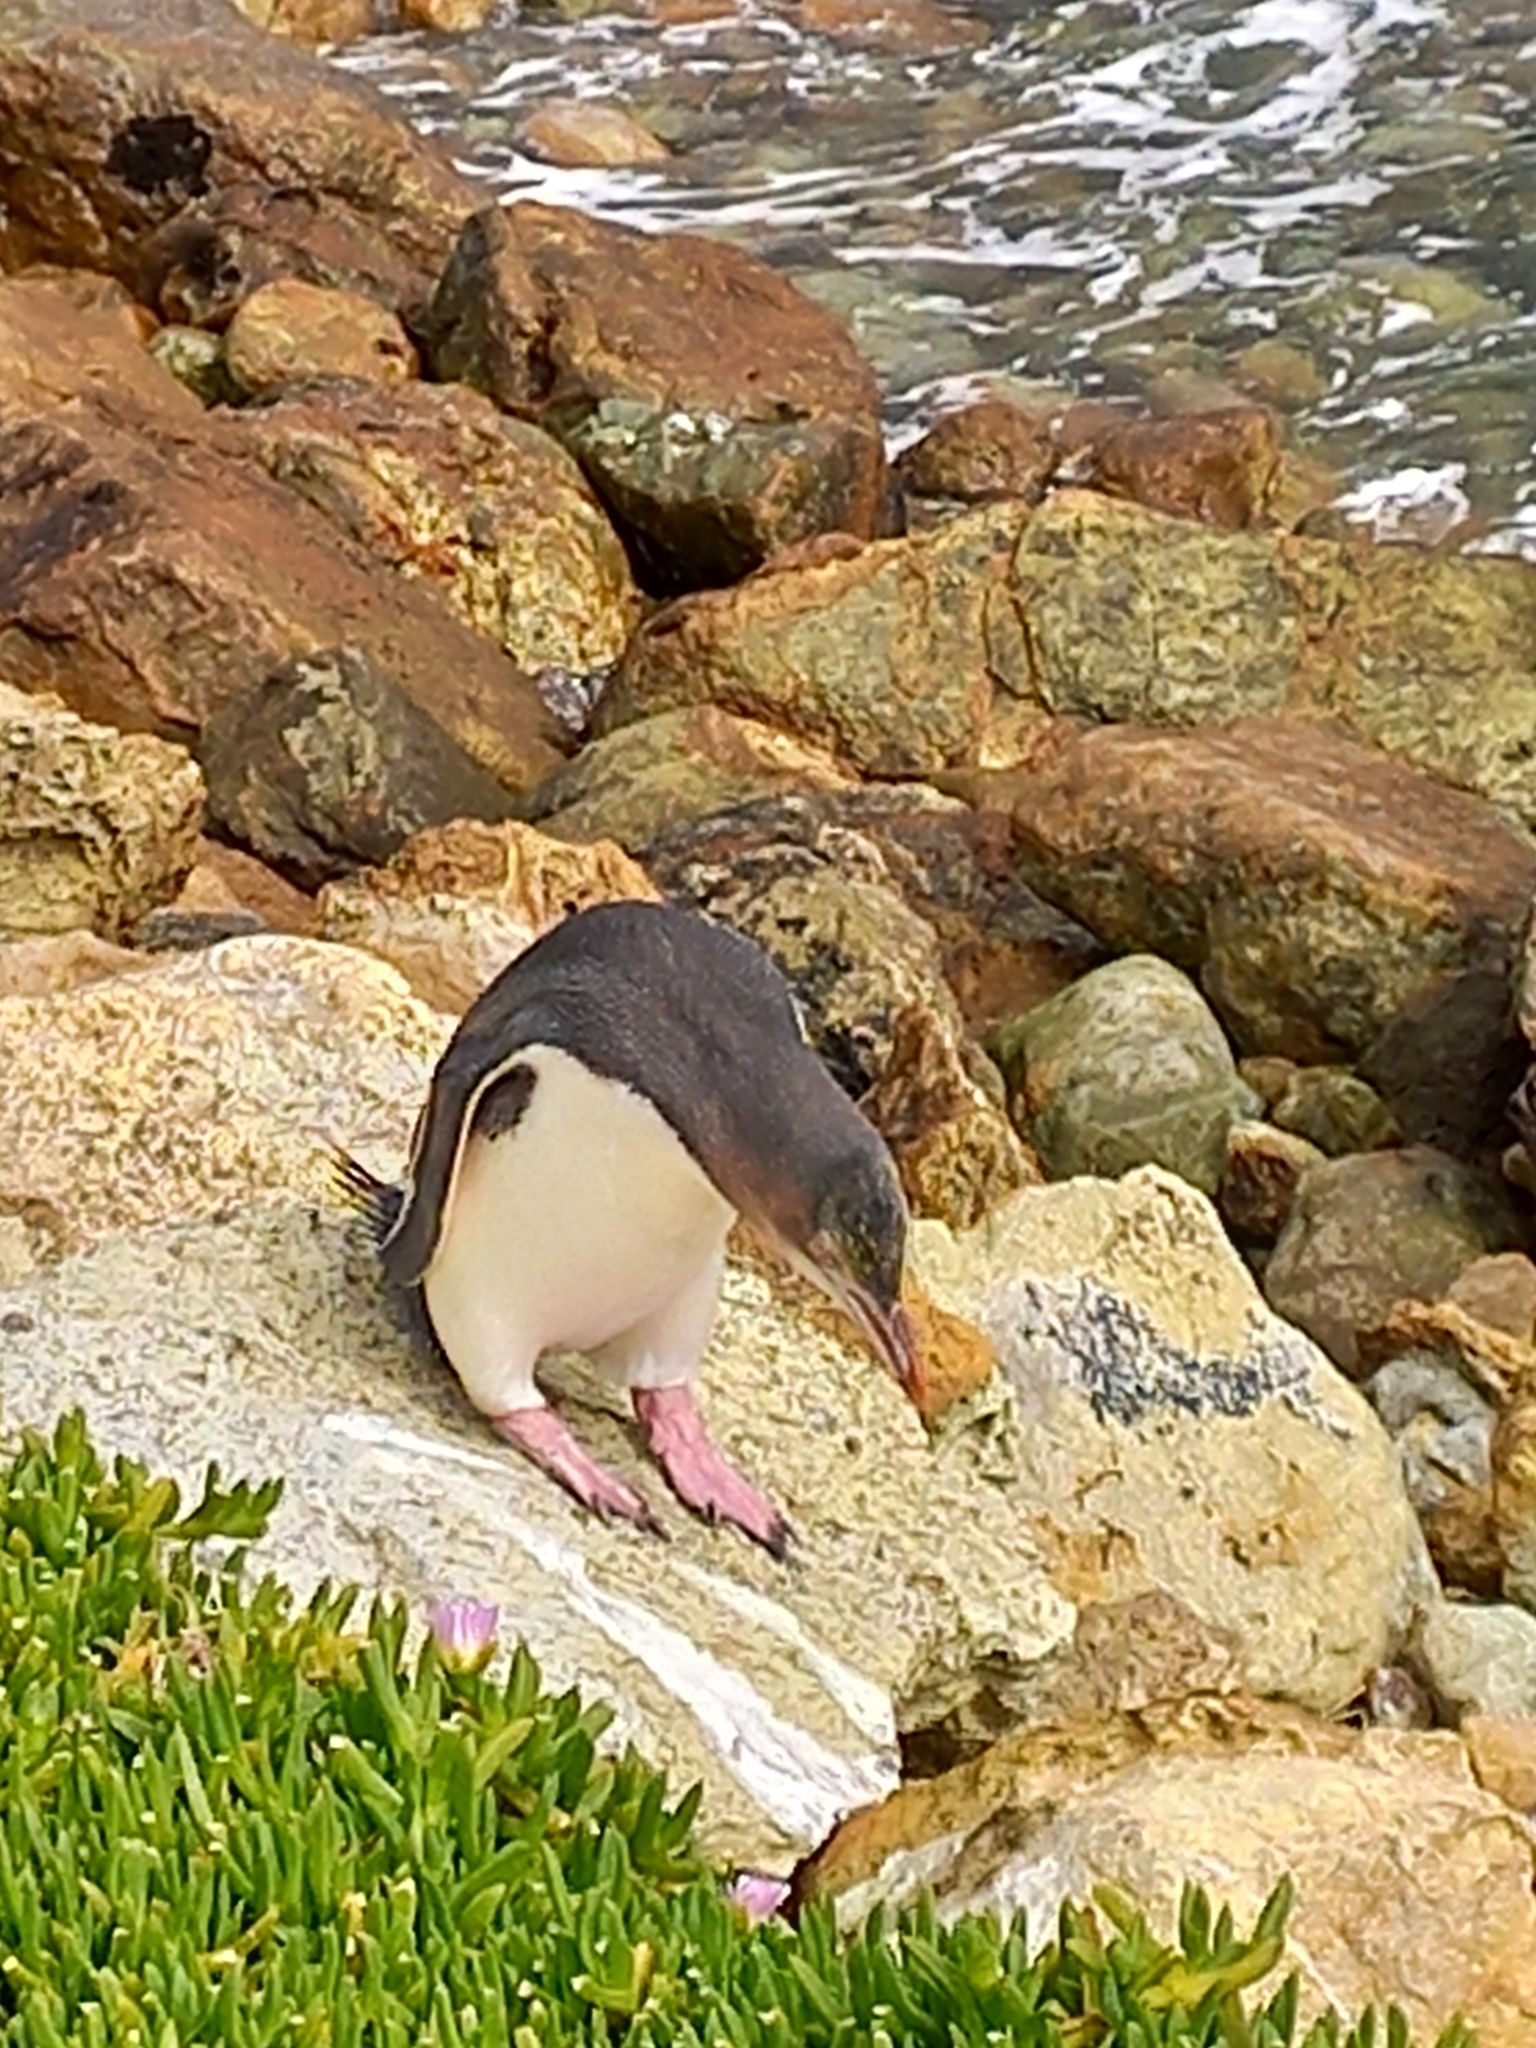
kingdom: Animalia
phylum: Chordata
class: Aves
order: Sphenisciformes
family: Spheniscidae
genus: Megadyptes
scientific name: Megadyptes antipodes
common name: Yellow-eyed penguin
